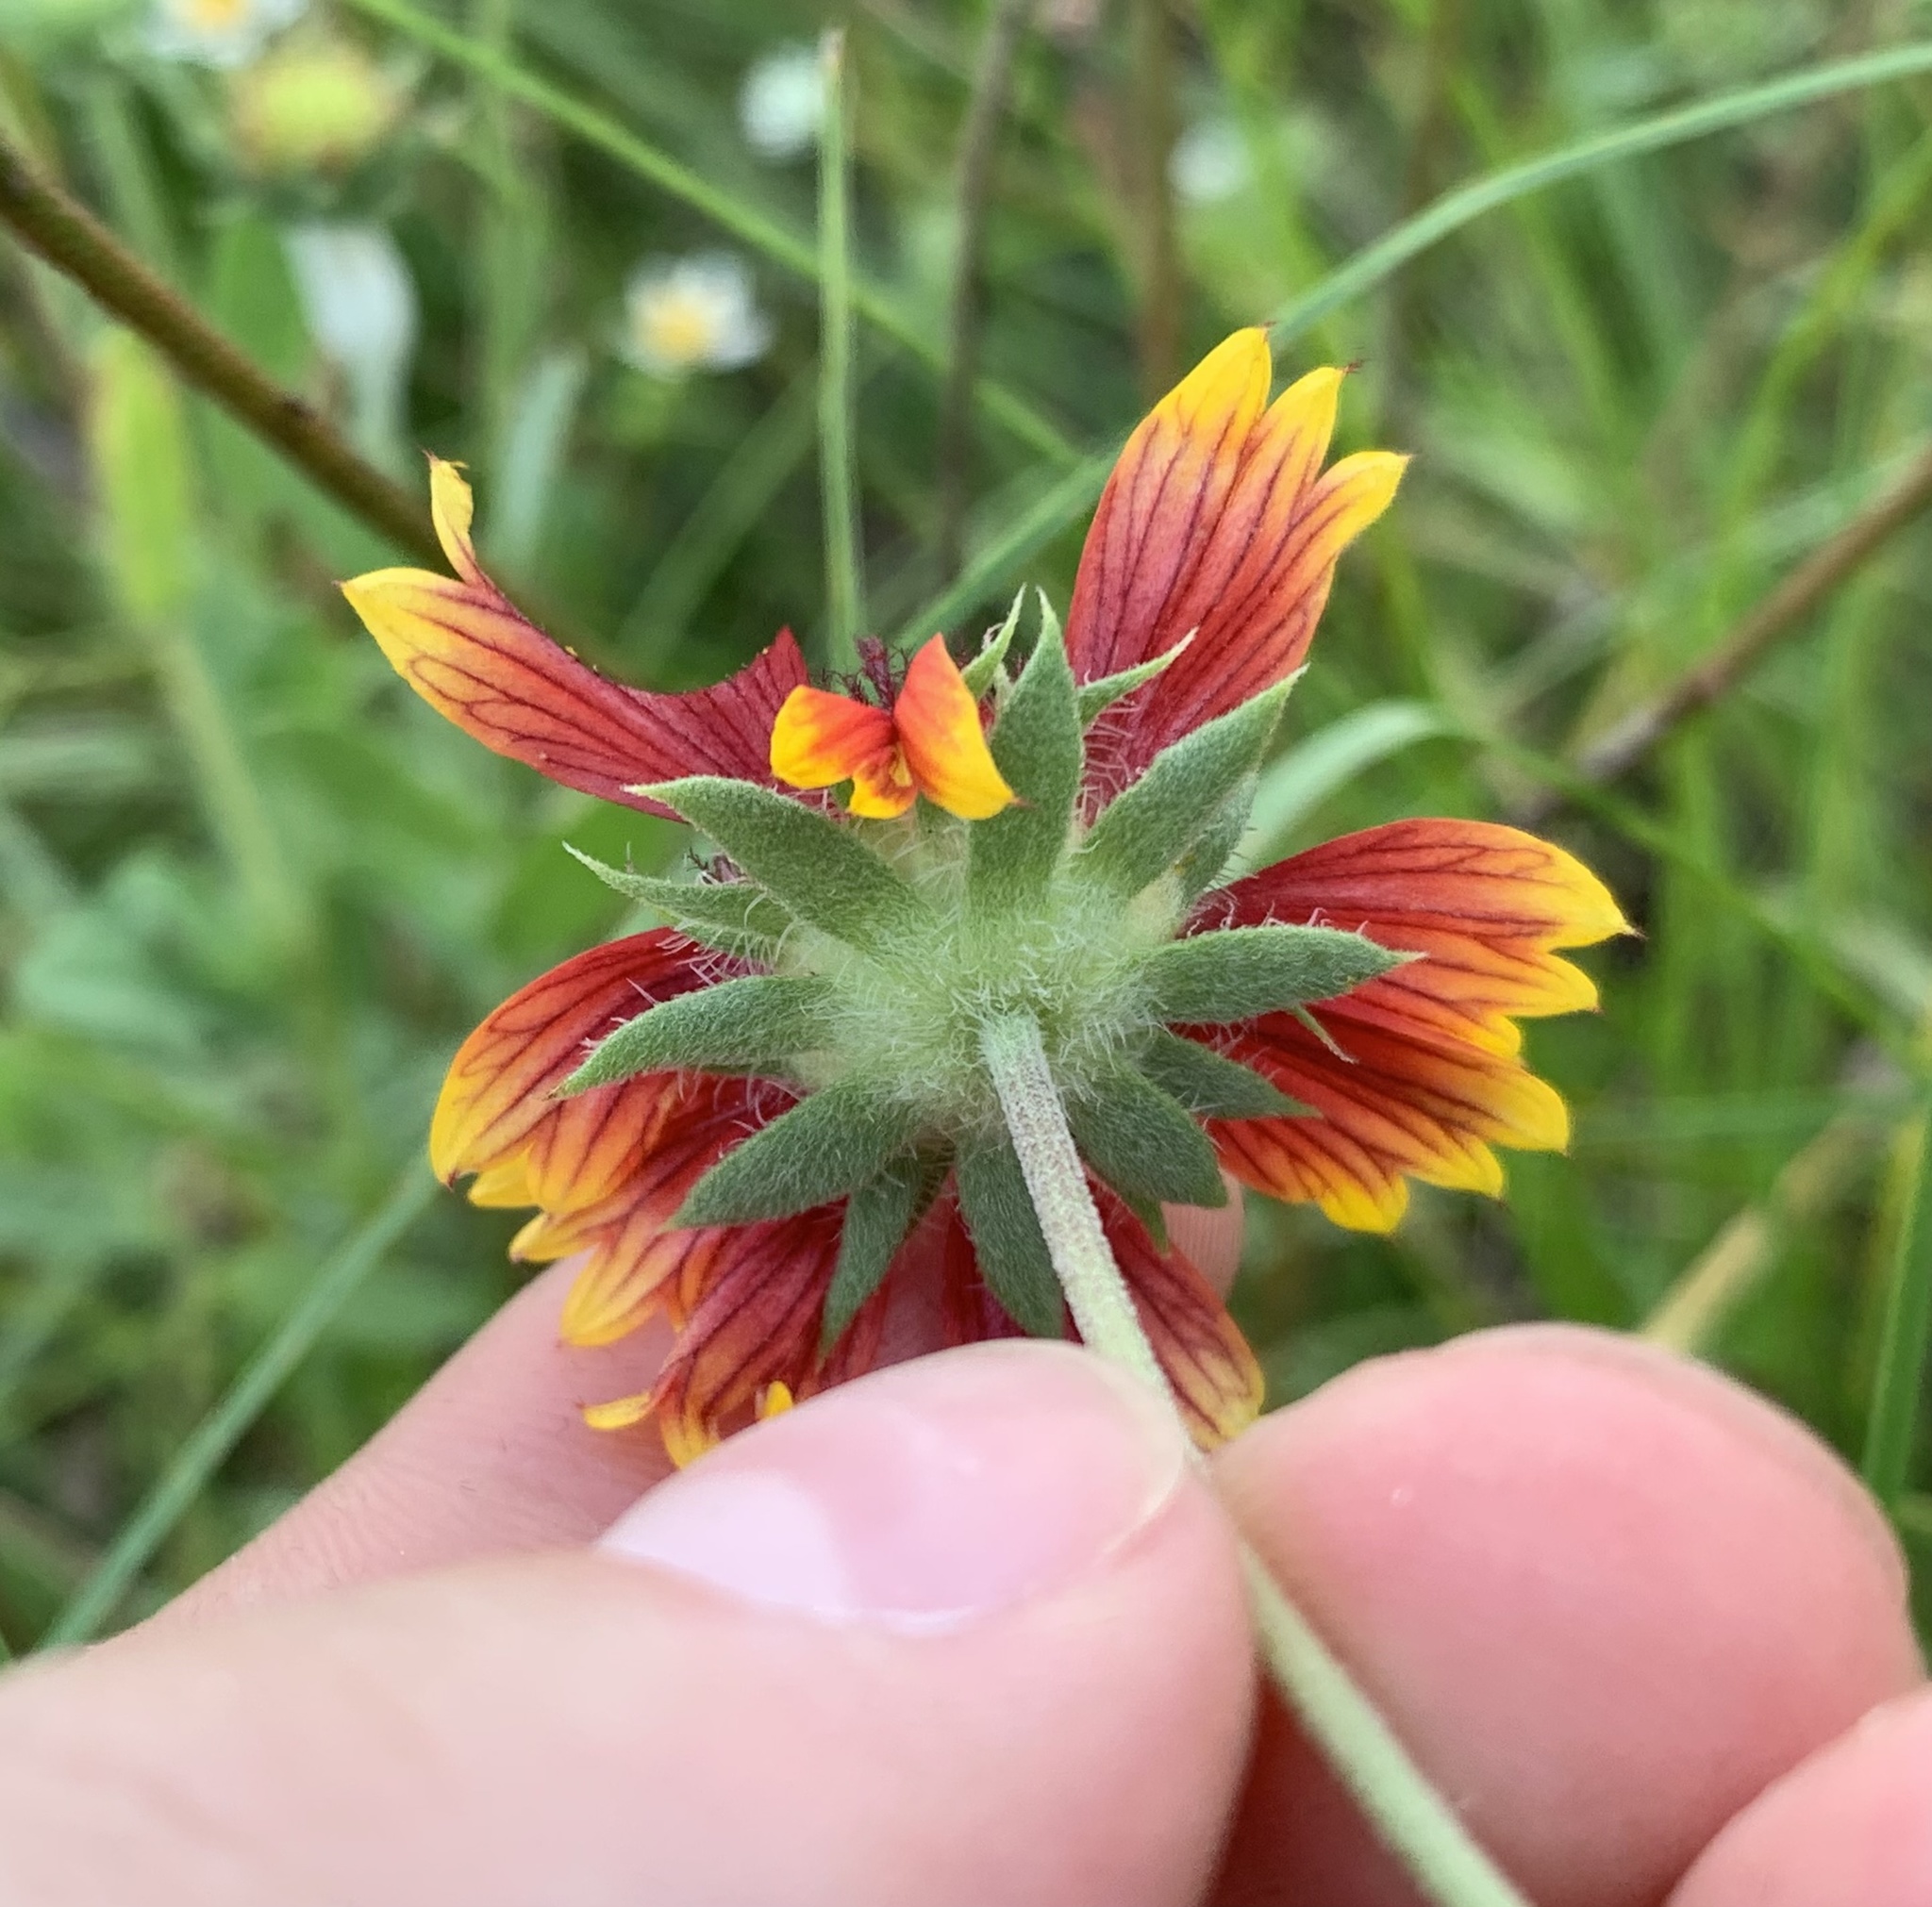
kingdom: Plantae
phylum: Tracheophyta
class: Magnoliopsida
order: Asterales
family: Asteraceae
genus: Gaillardia
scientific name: Gaillardia pulchella
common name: Firewheel
